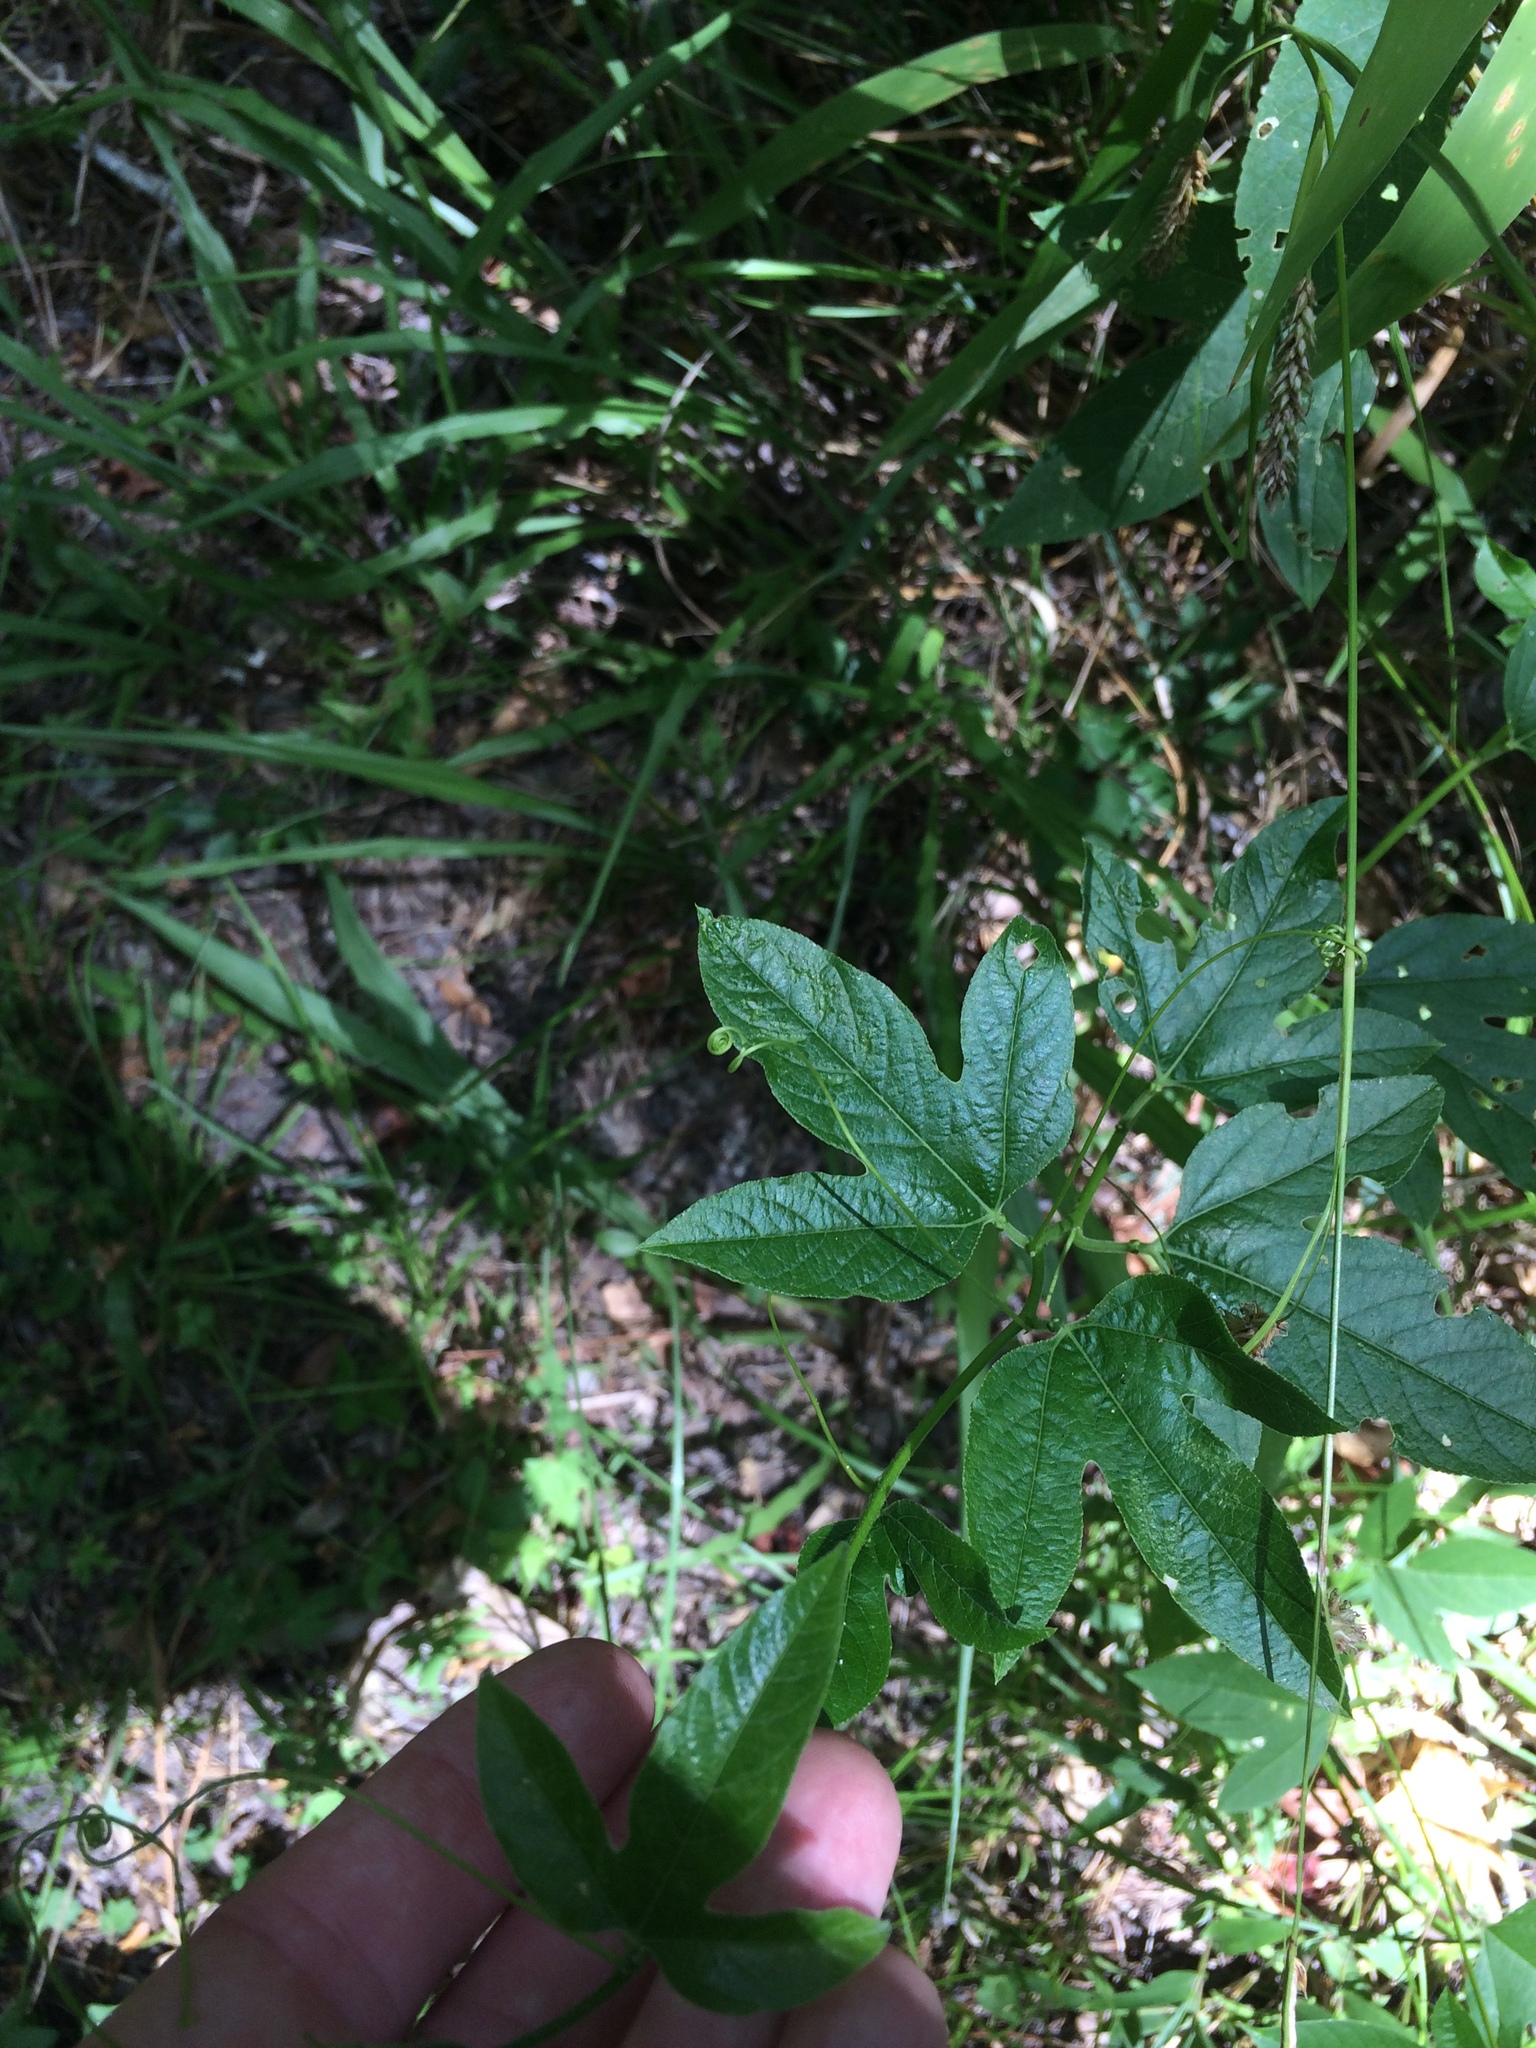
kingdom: Plantae
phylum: Tracheophyta
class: Magnoliopsida
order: Malpighiales
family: Passifloraceae
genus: Passiflora
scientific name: Passiflora incarnata
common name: Apricot-vine
